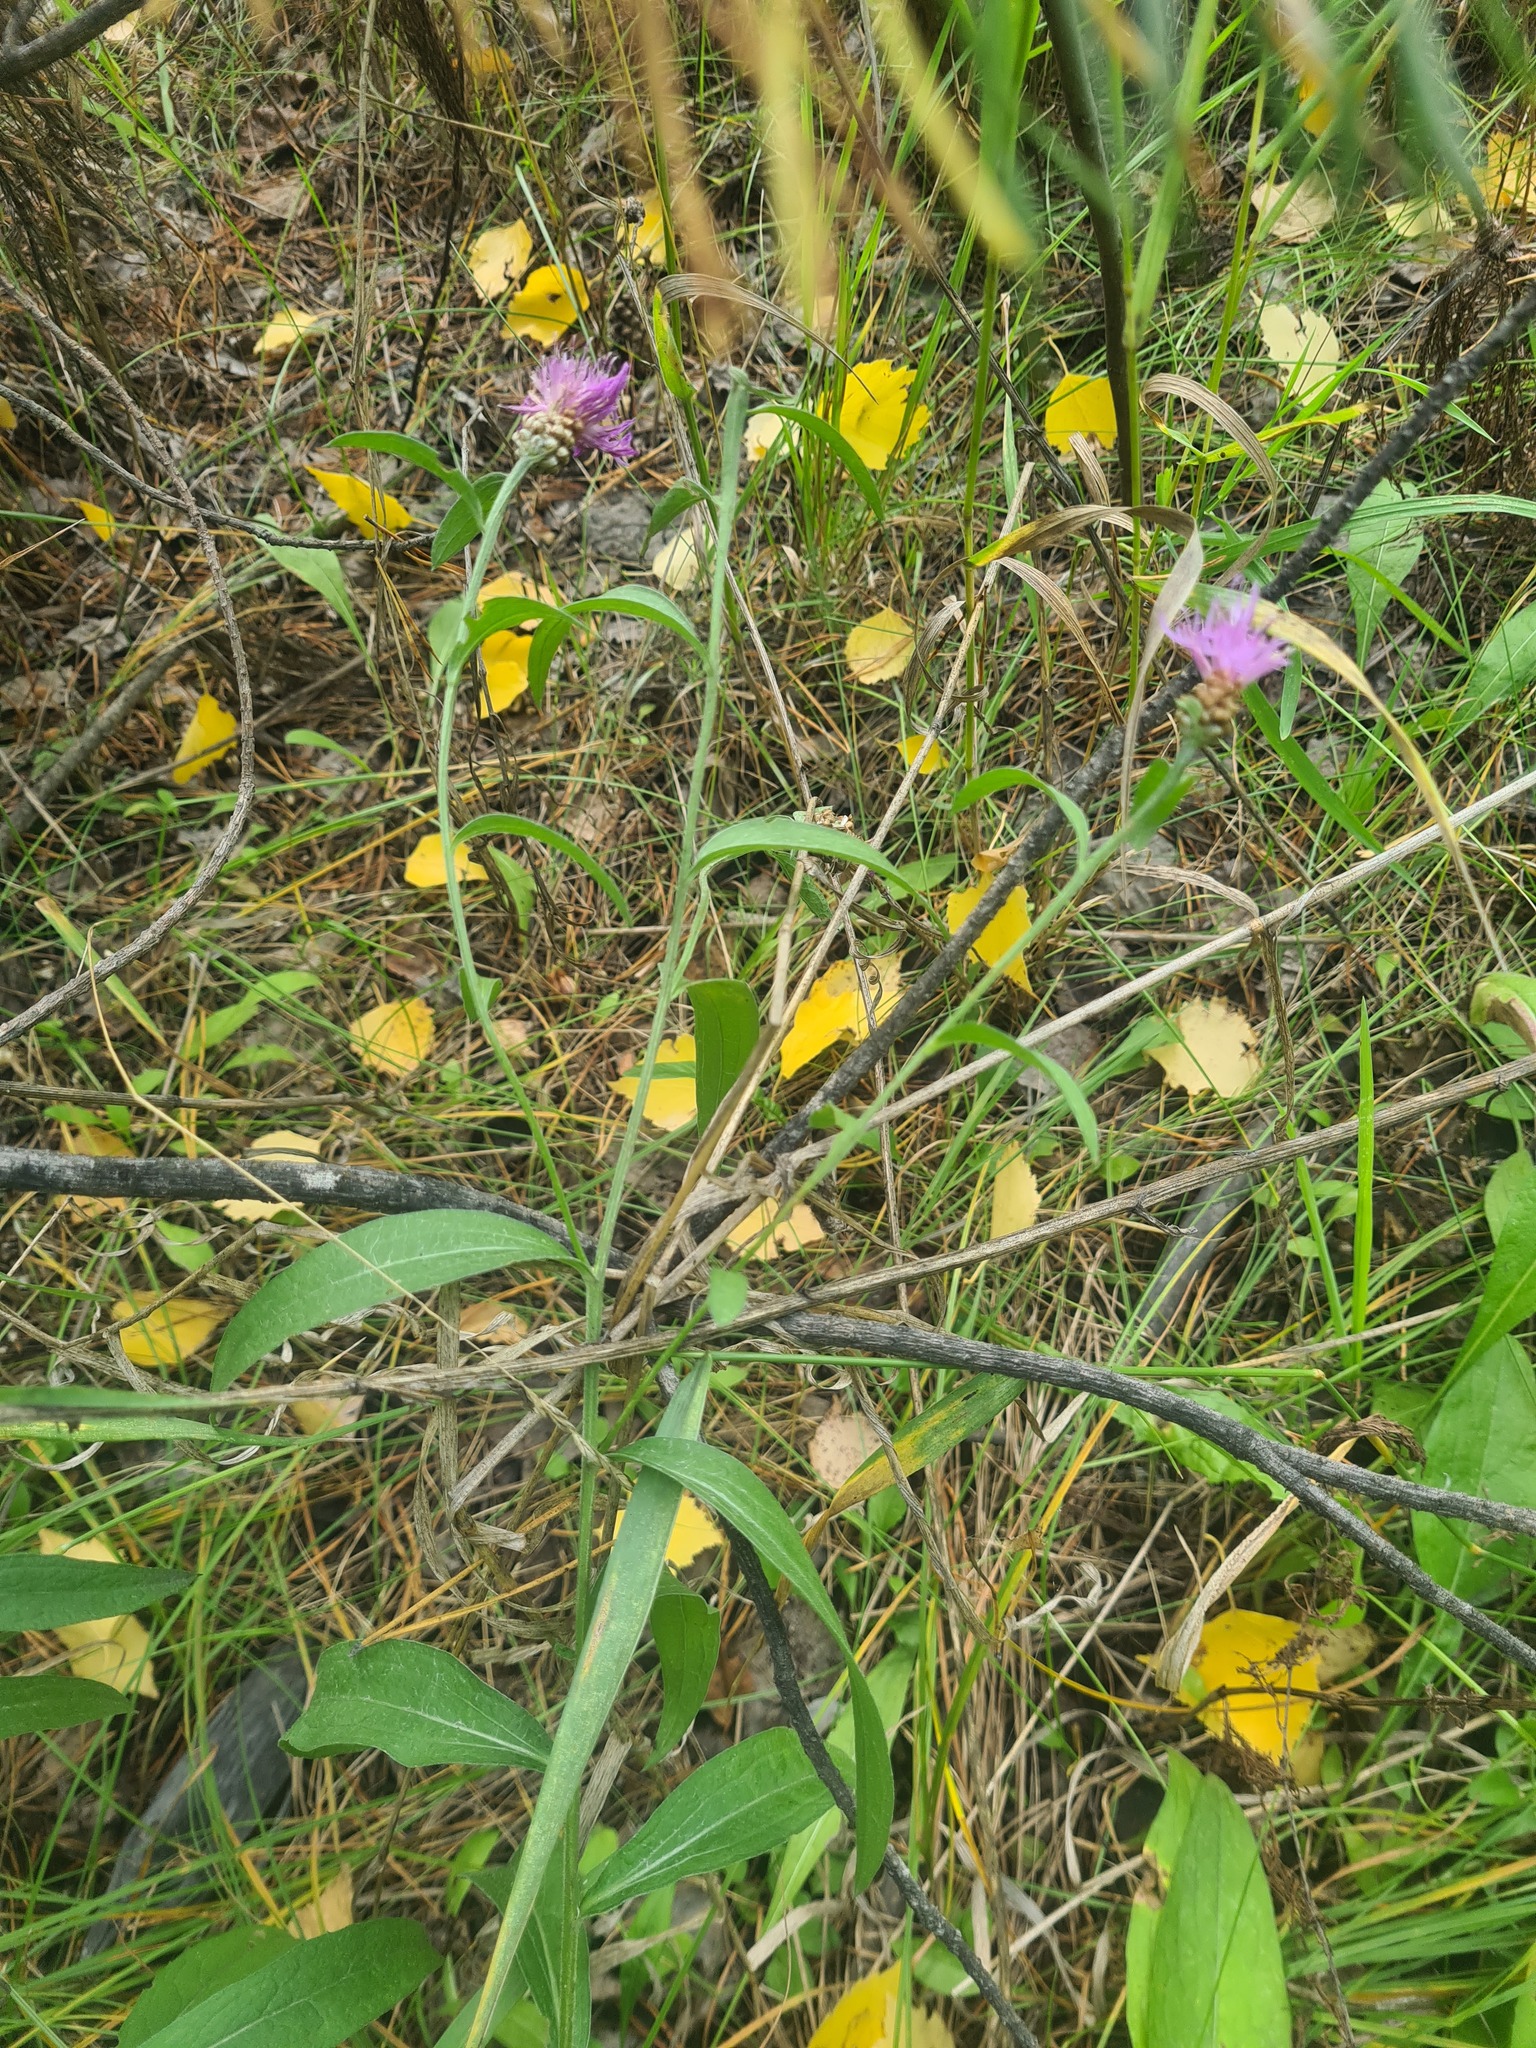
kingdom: Plantae
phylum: Tracheophyta
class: Magnoliopsida
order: Asterales
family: Asteraceae
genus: Centaurea
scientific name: Centaurea jacea
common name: Brown knapweed
